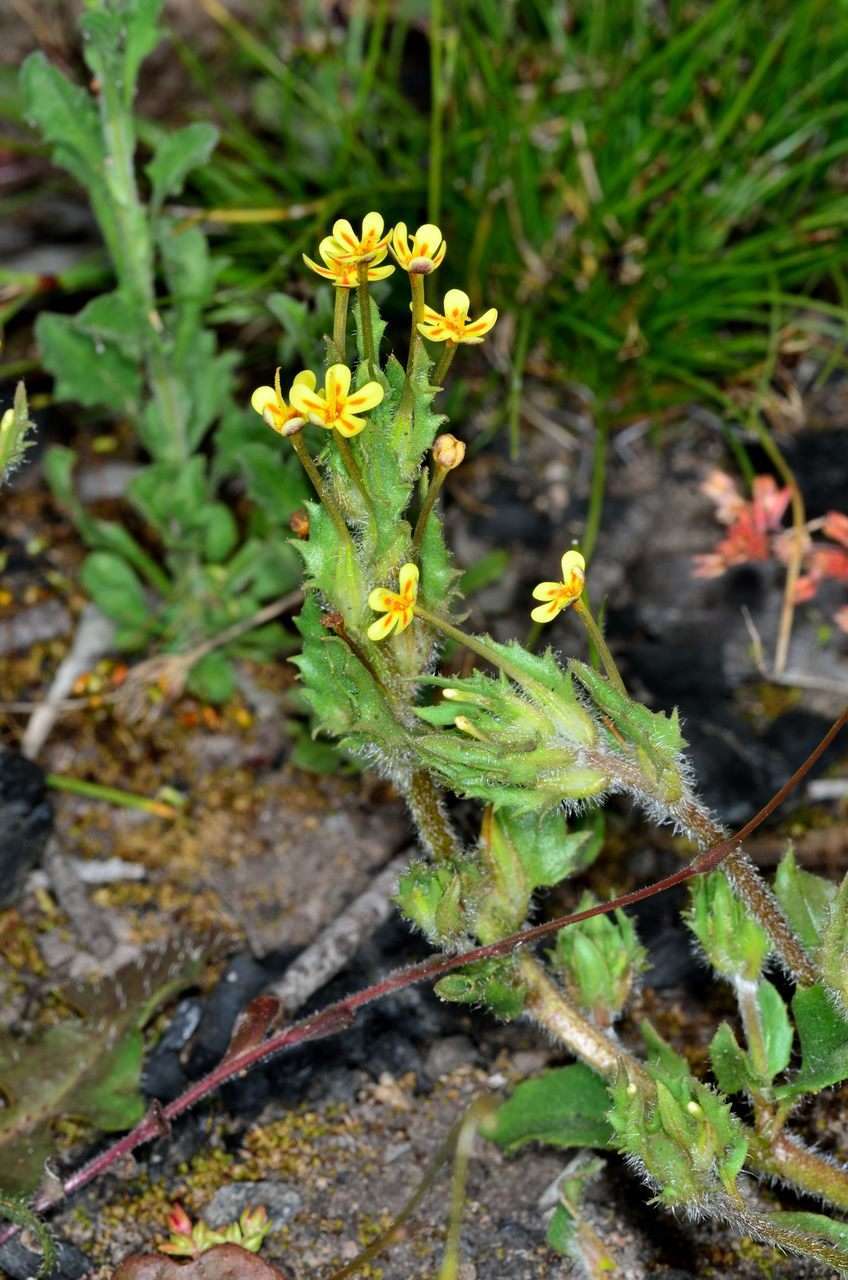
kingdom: Plantae
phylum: Tracheophyta
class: Magnoliopsida
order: Lamiales
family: Scrophulariaceae
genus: Zaluzianskya
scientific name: Zaluzianskya divaricata
